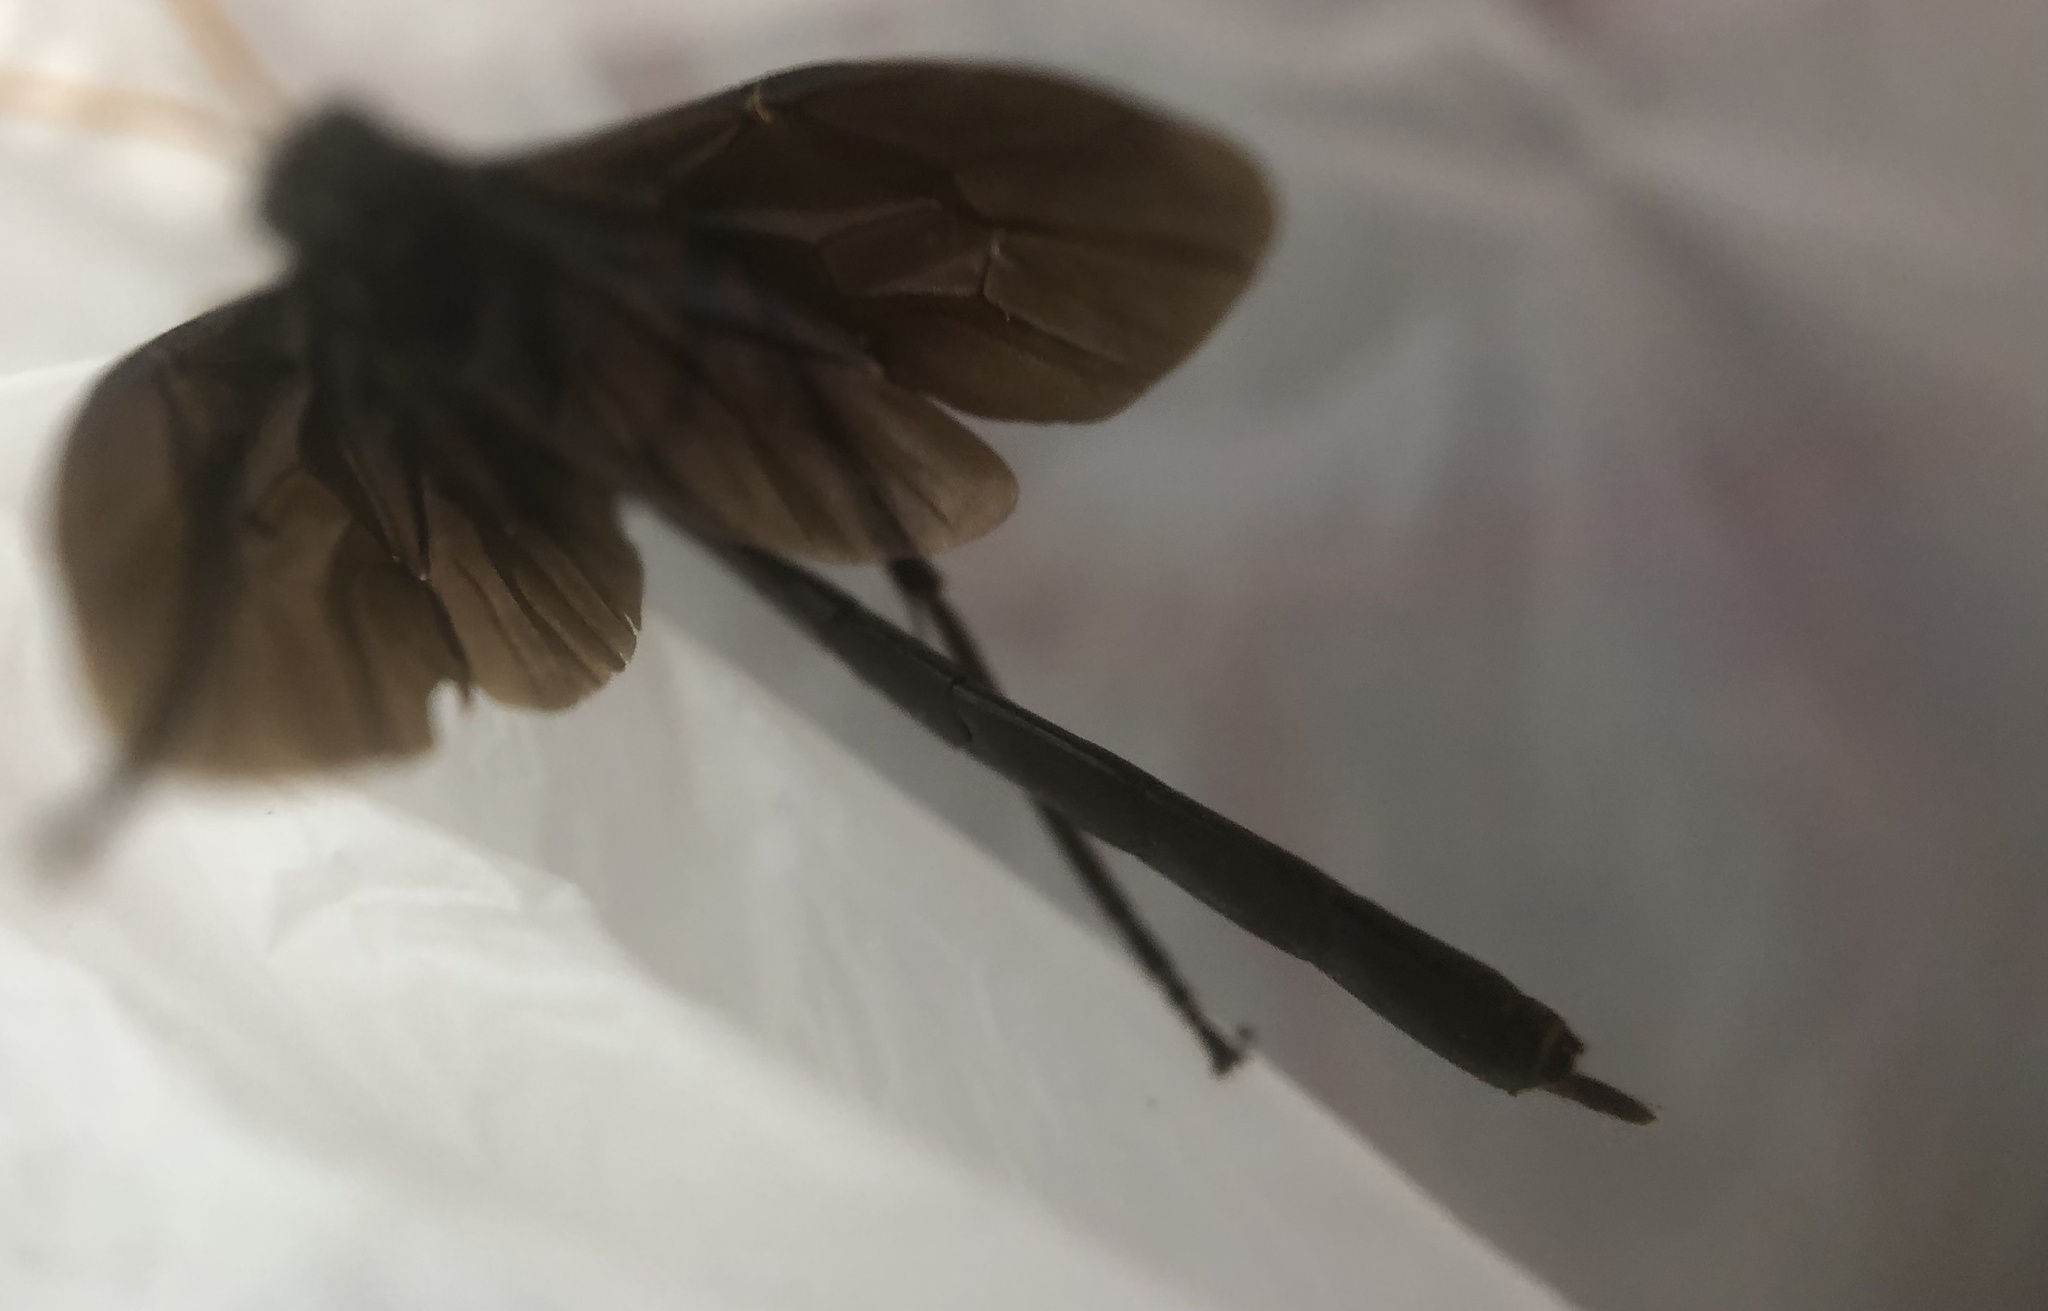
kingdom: Animalia
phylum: Arthropoda
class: Insecta
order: Hymenoptera
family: Ichneumonidae
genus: Heteropelma
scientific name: Heteropelma datanae
